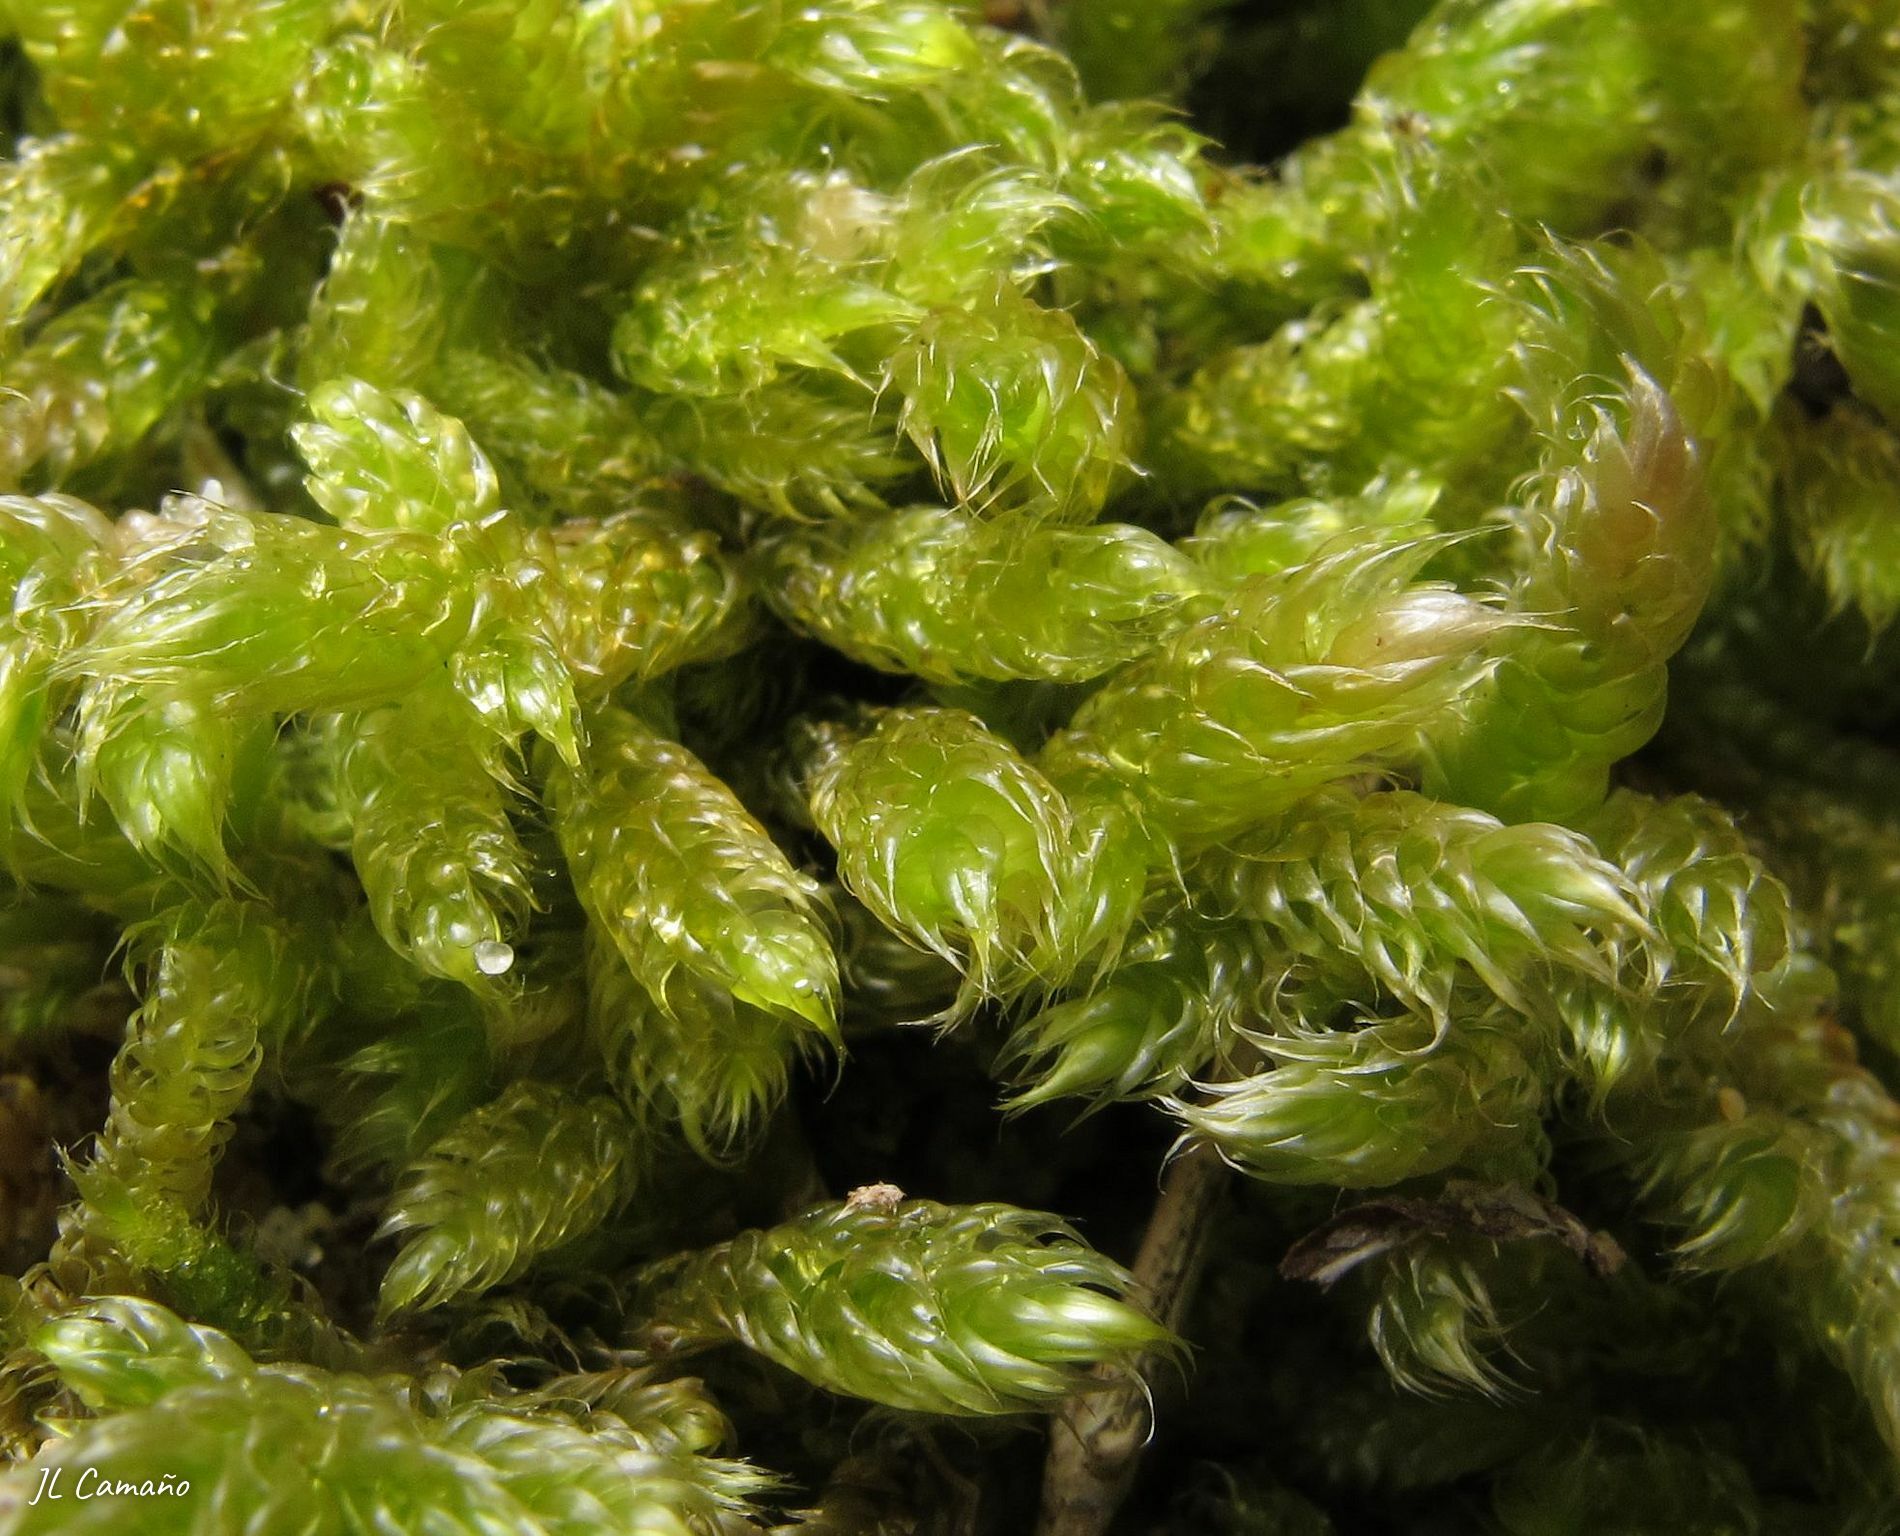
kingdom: Plantae
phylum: Bryophyta
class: Bryopsida
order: Hypnales
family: Hypnaceae
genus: Hypnum
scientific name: Hypnum cupressiforme
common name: Cypress-leaved plait-moss
